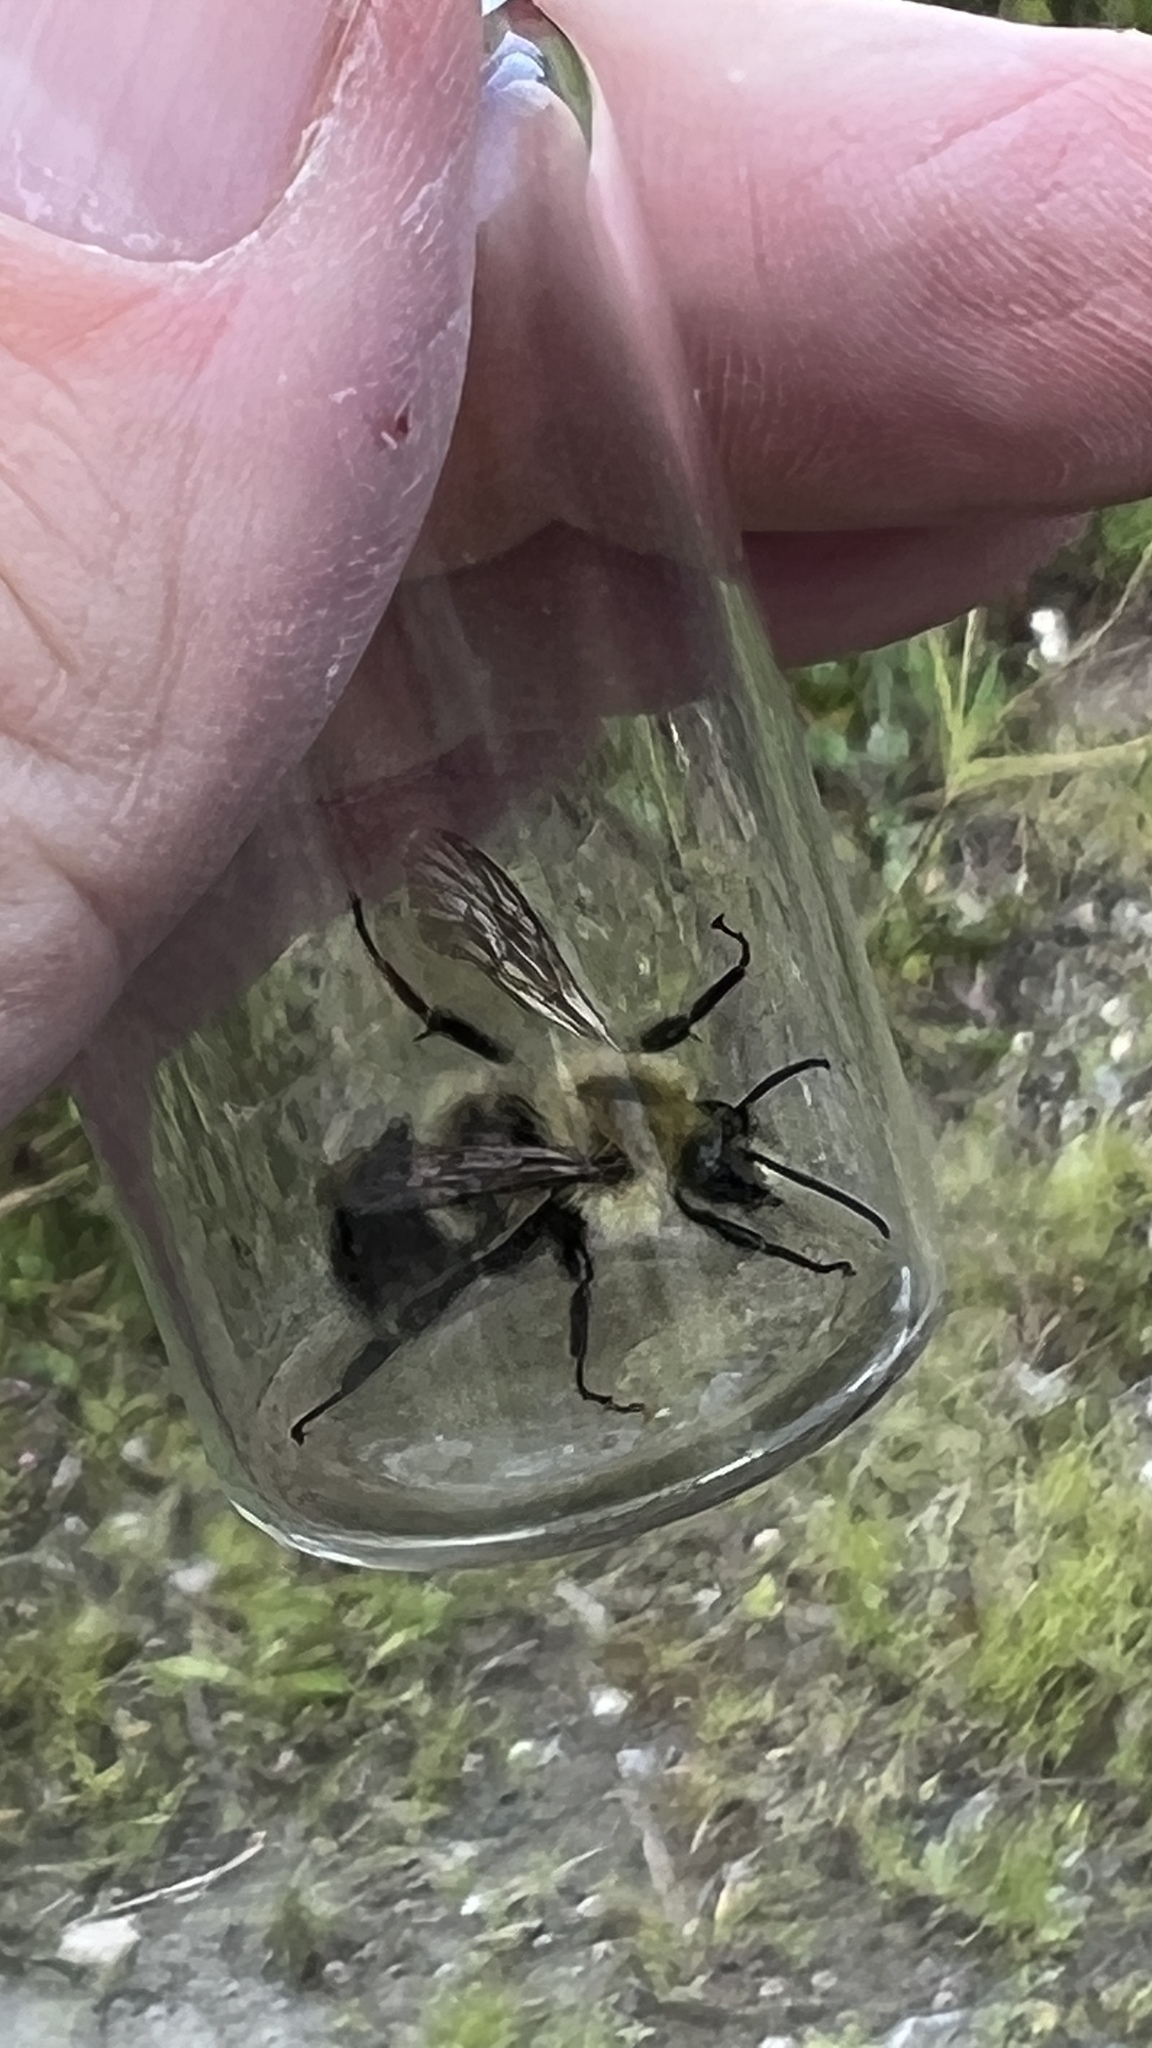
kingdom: Animalia
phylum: Arthropoda
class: Insecta
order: Hymenoptera
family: Apidae
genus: Pyrobombus
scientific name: Pyrobombus
